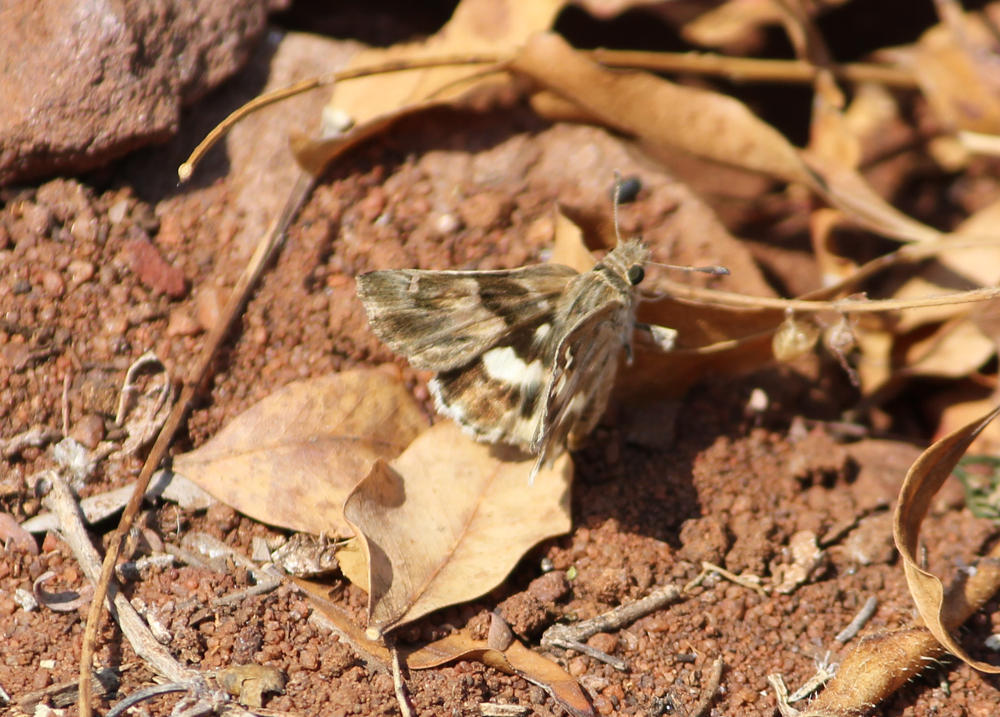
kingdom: Animalia
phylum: Arthropoda
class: Insecta
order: Lepidoptera
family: Hesperiidae
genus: Gomalia
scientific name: Gomalia elma
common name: Green-marbled skipper
